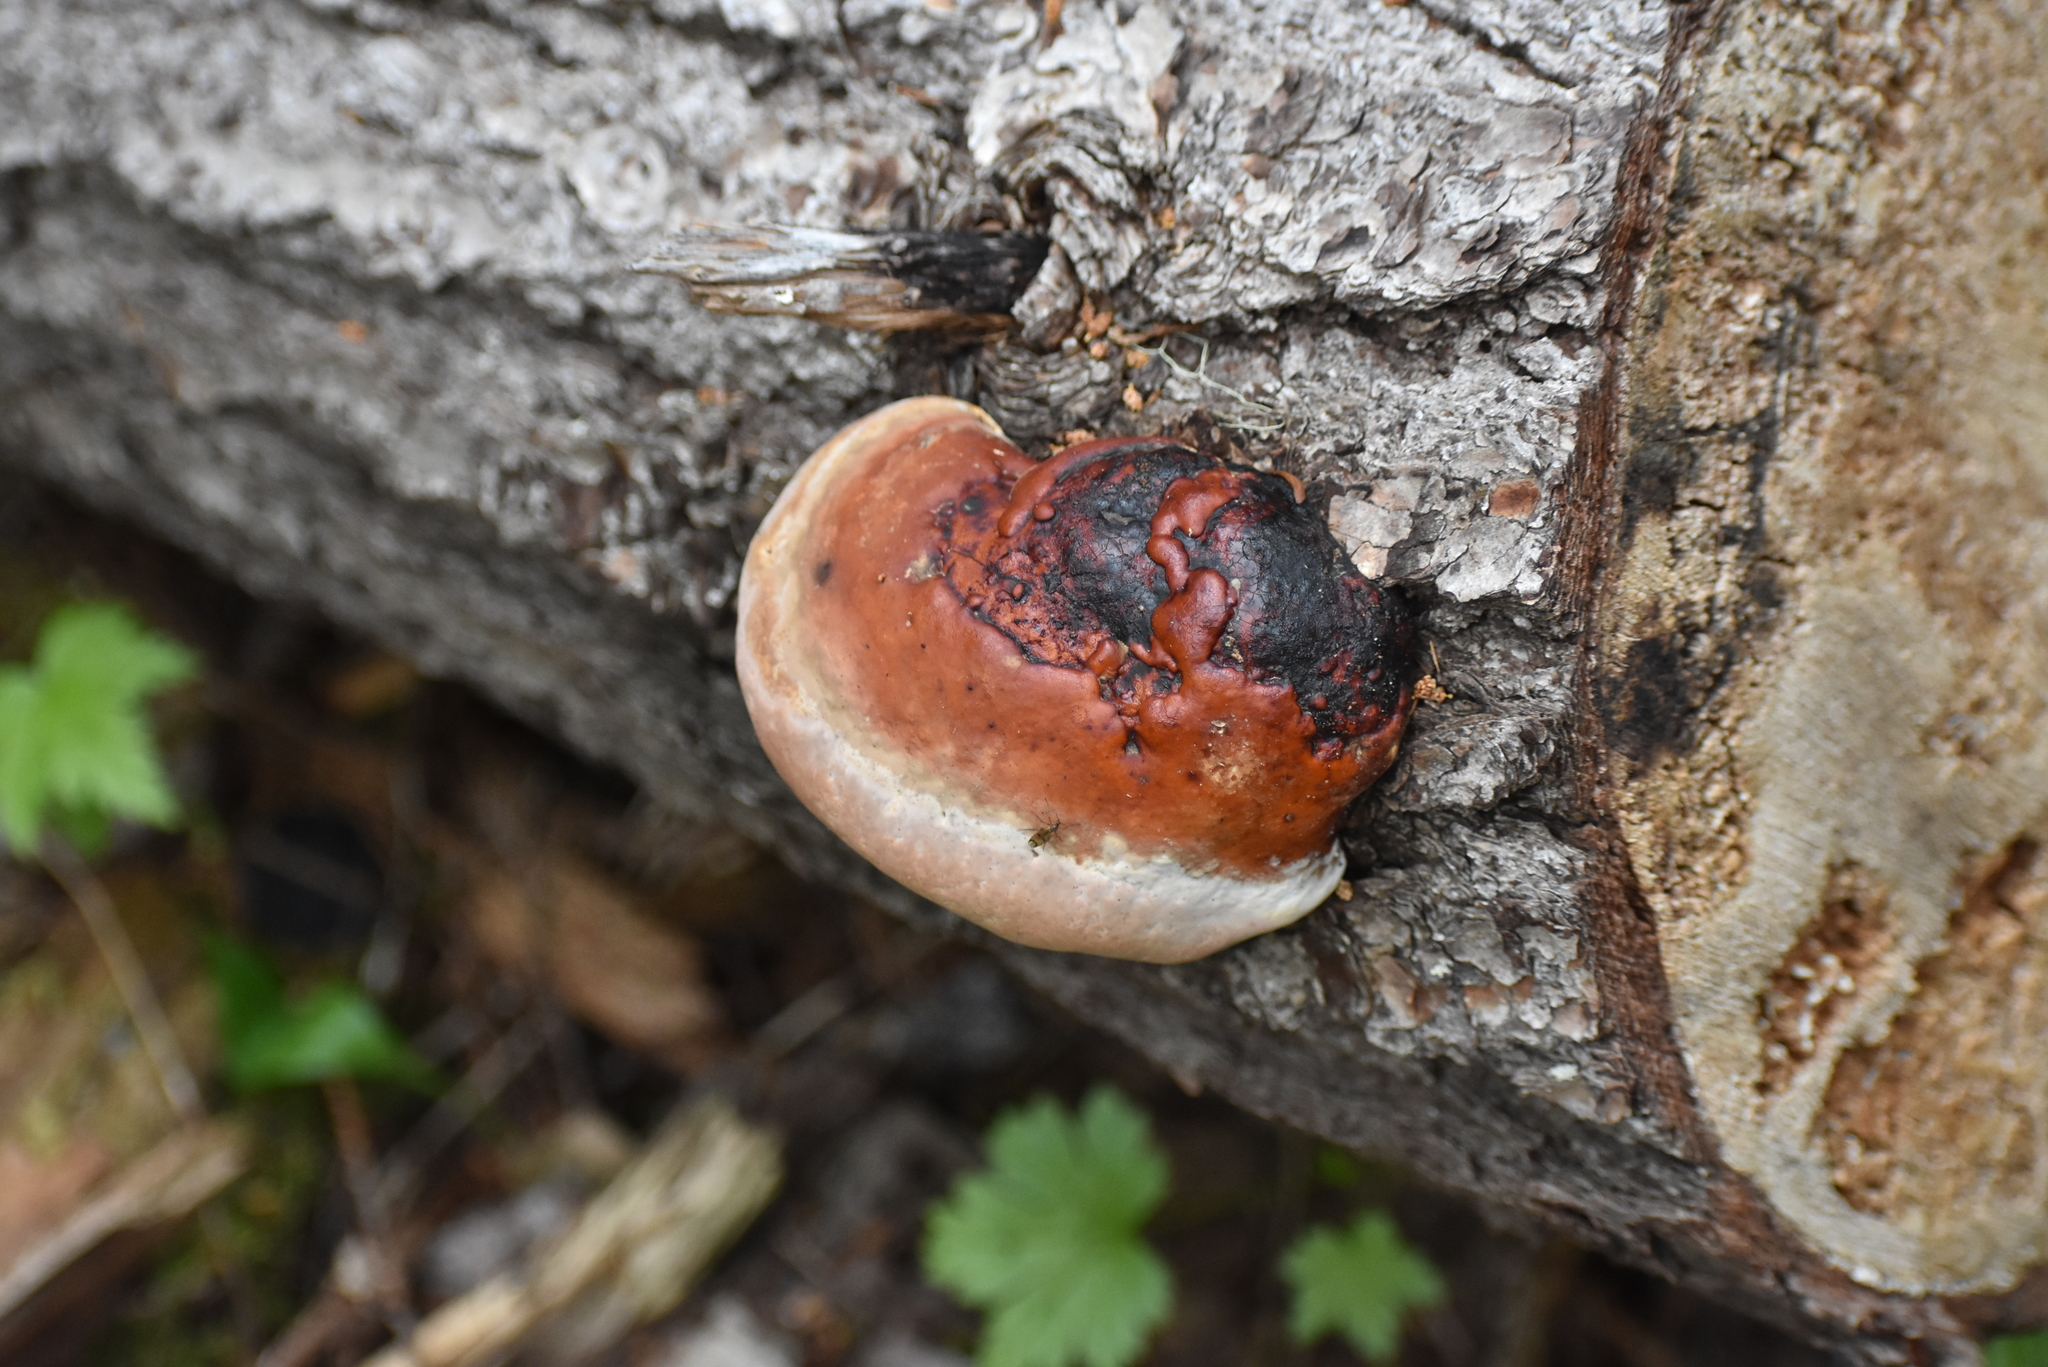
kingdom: Fungi
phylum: Basidiomycota
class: Agaricomycetes
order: Polyporales
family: Fomitopsidaceae
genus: Fomitopsis
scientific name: Fomitopsis mounceae
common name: Northern red belt
